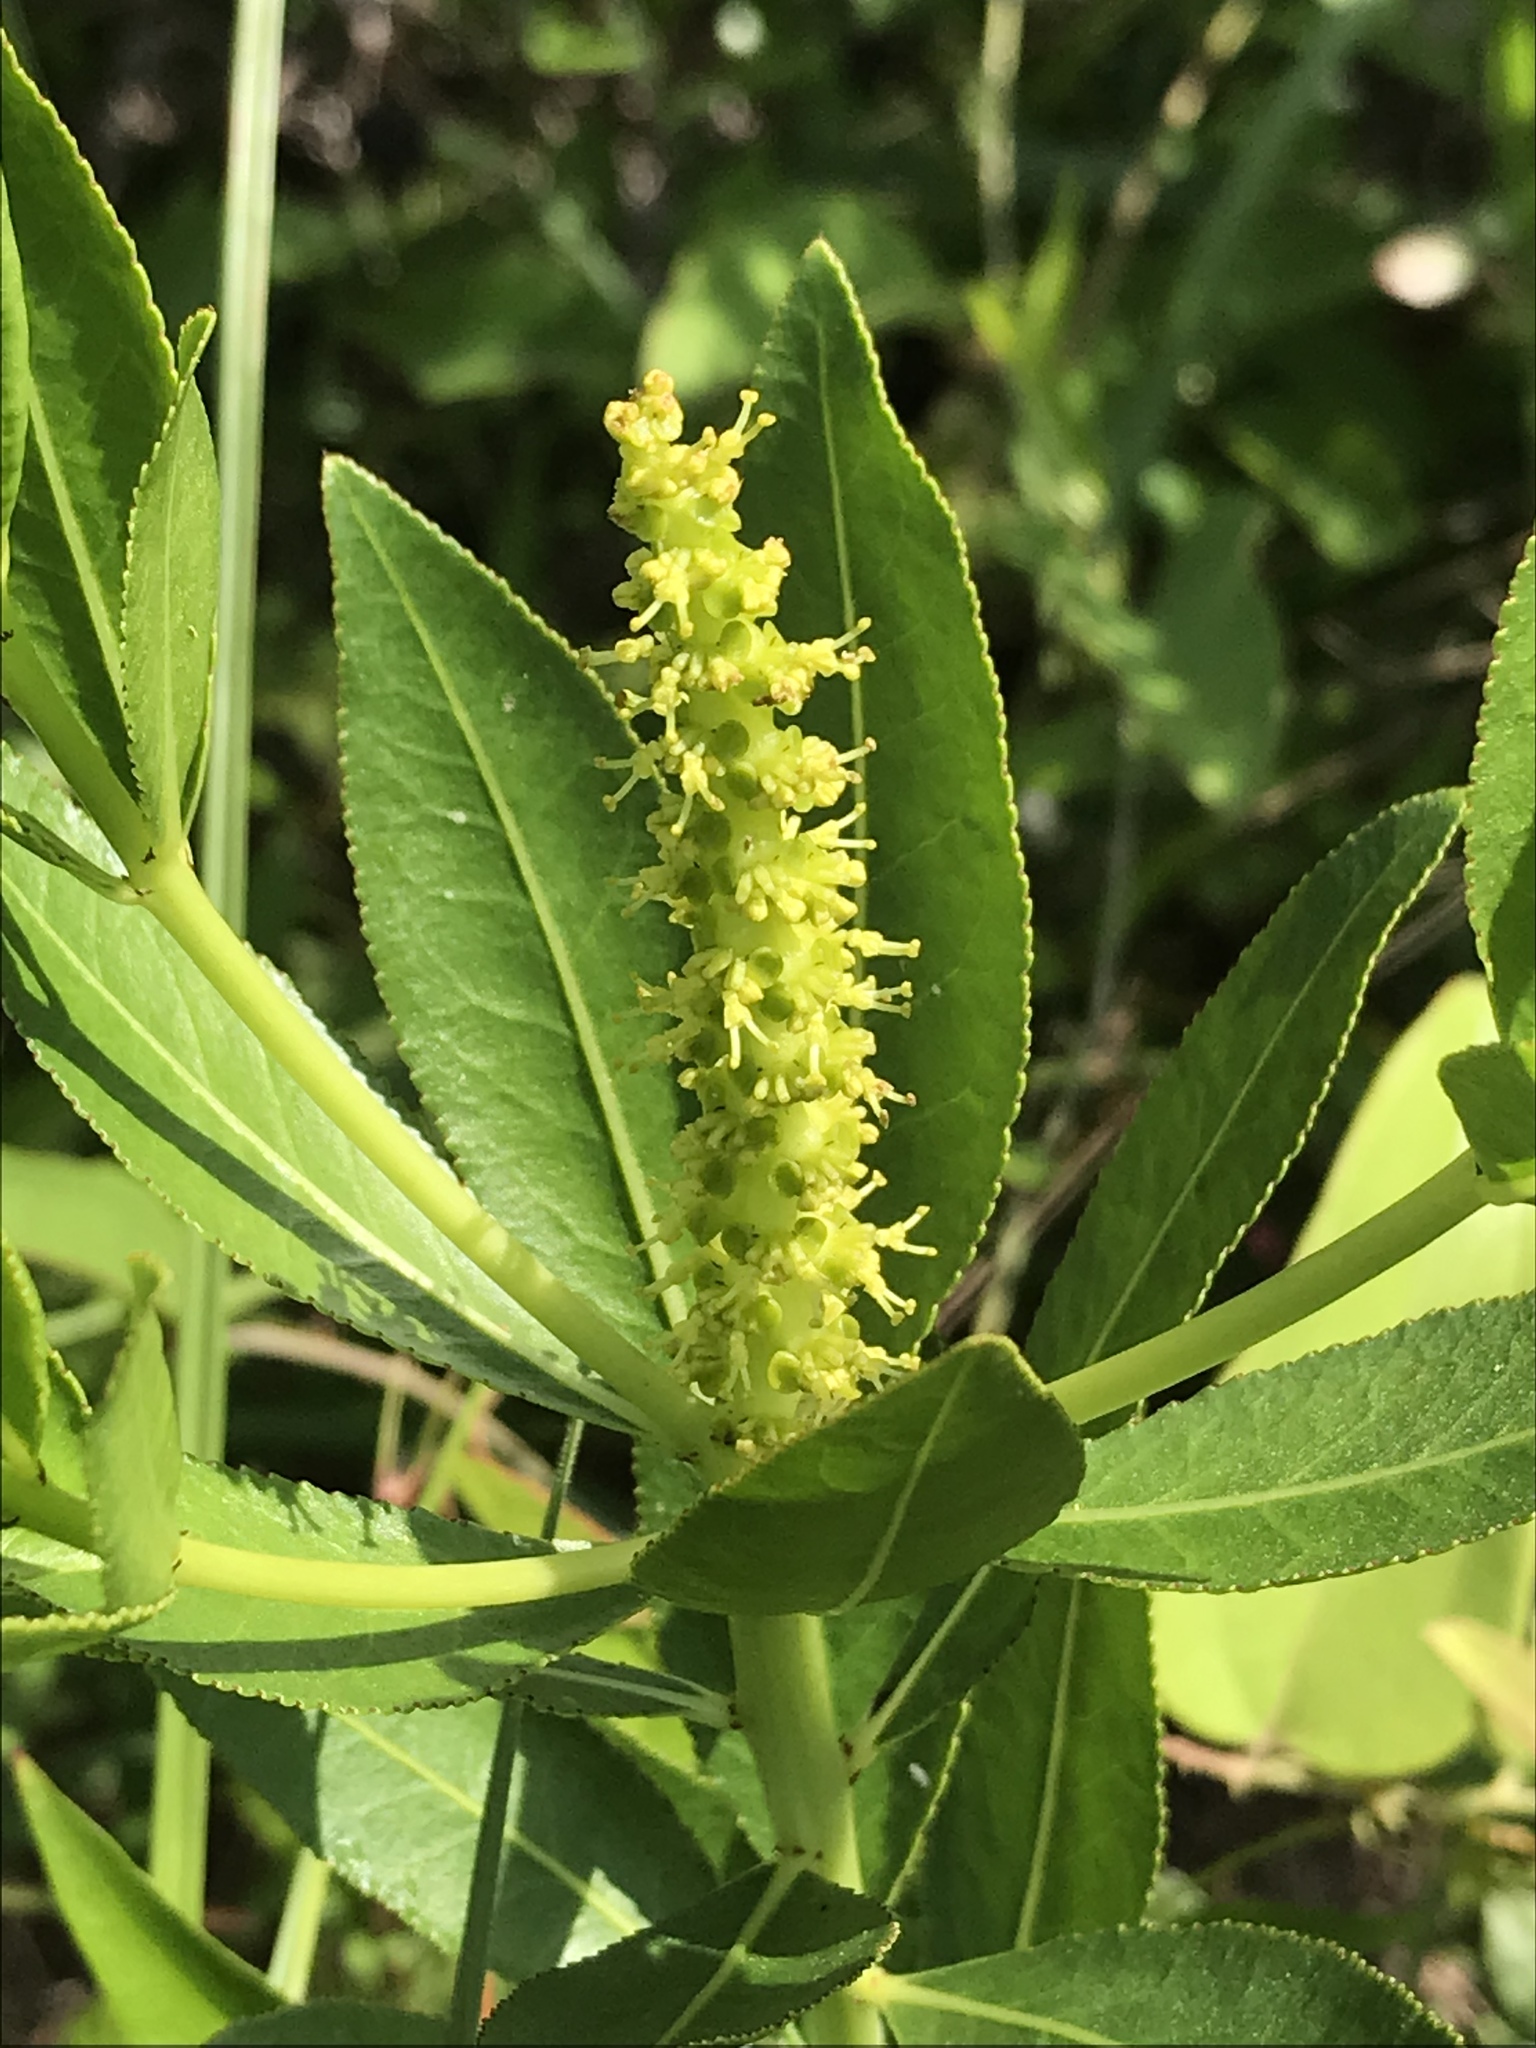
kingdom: Plantae
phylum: Tracheophyta
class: Magnoliopsida
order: Malpighiales
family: Euphorbiaceae
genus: Stillingia
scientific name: Stillingia sylvatica
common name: Queen's-delight
